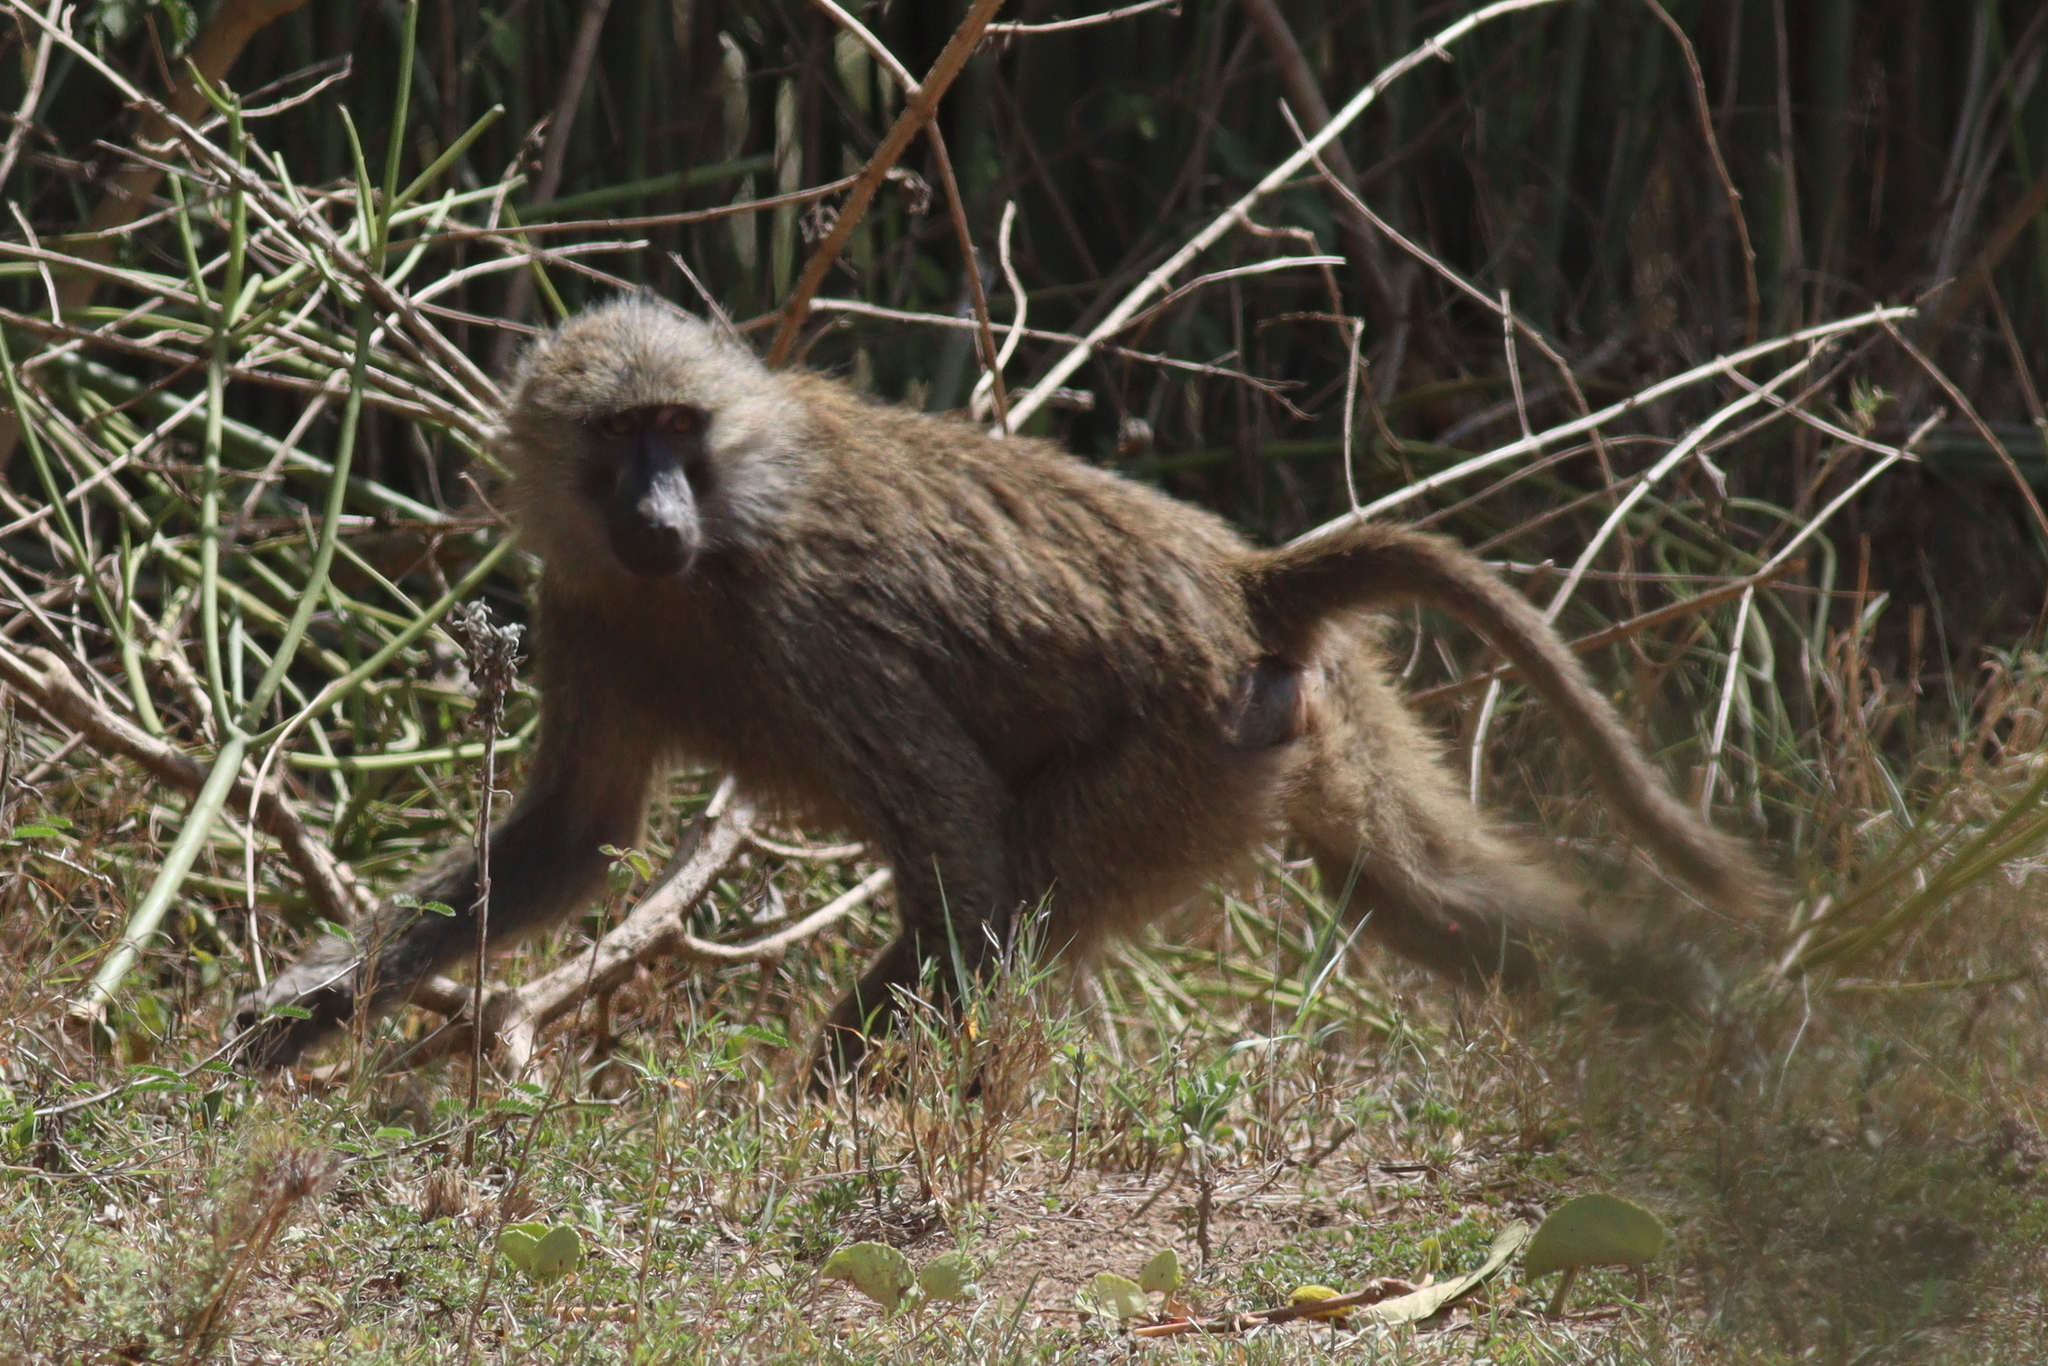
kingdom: Animalia
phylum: Chordata
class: Mammalia
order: Primates
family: Cercopithecidae
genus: Papio
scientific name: Papio anubis
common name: Olive baboon
